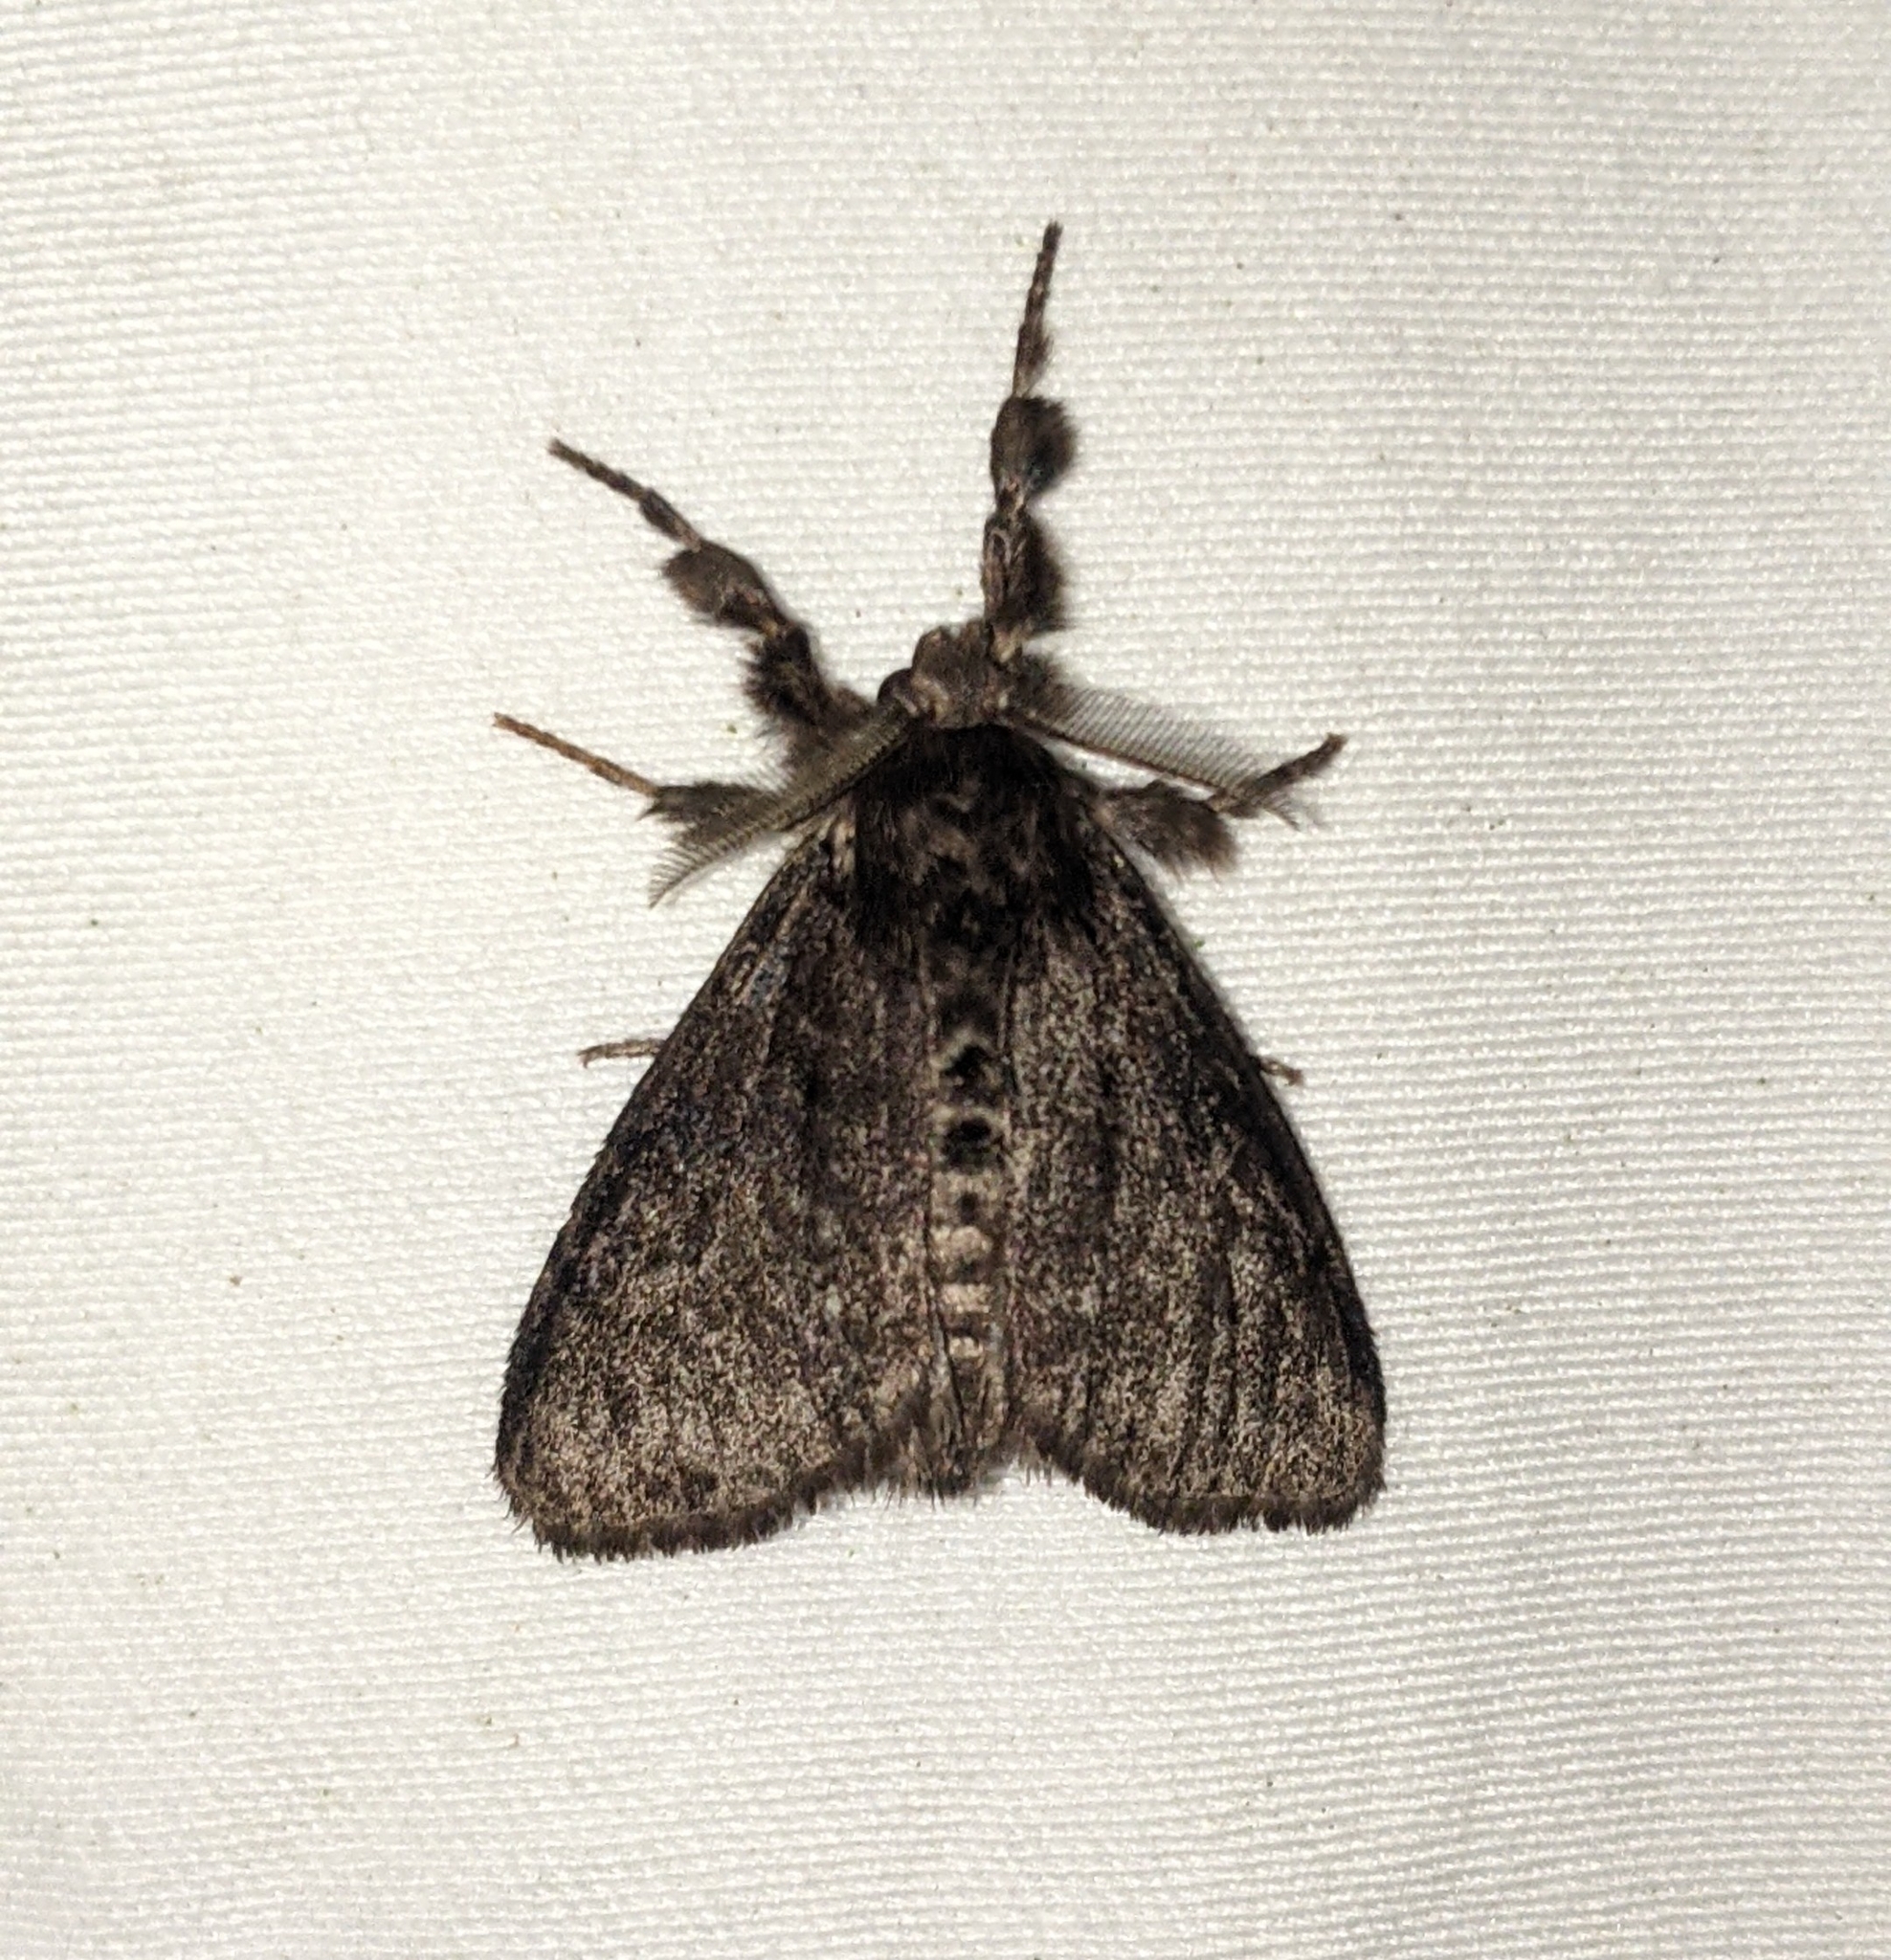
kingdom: Animalia
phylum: Arthropoda
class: Insecta
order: Lepidoptera
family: Erebidae
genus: Dasychira
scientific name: Dasychira grisefacta
